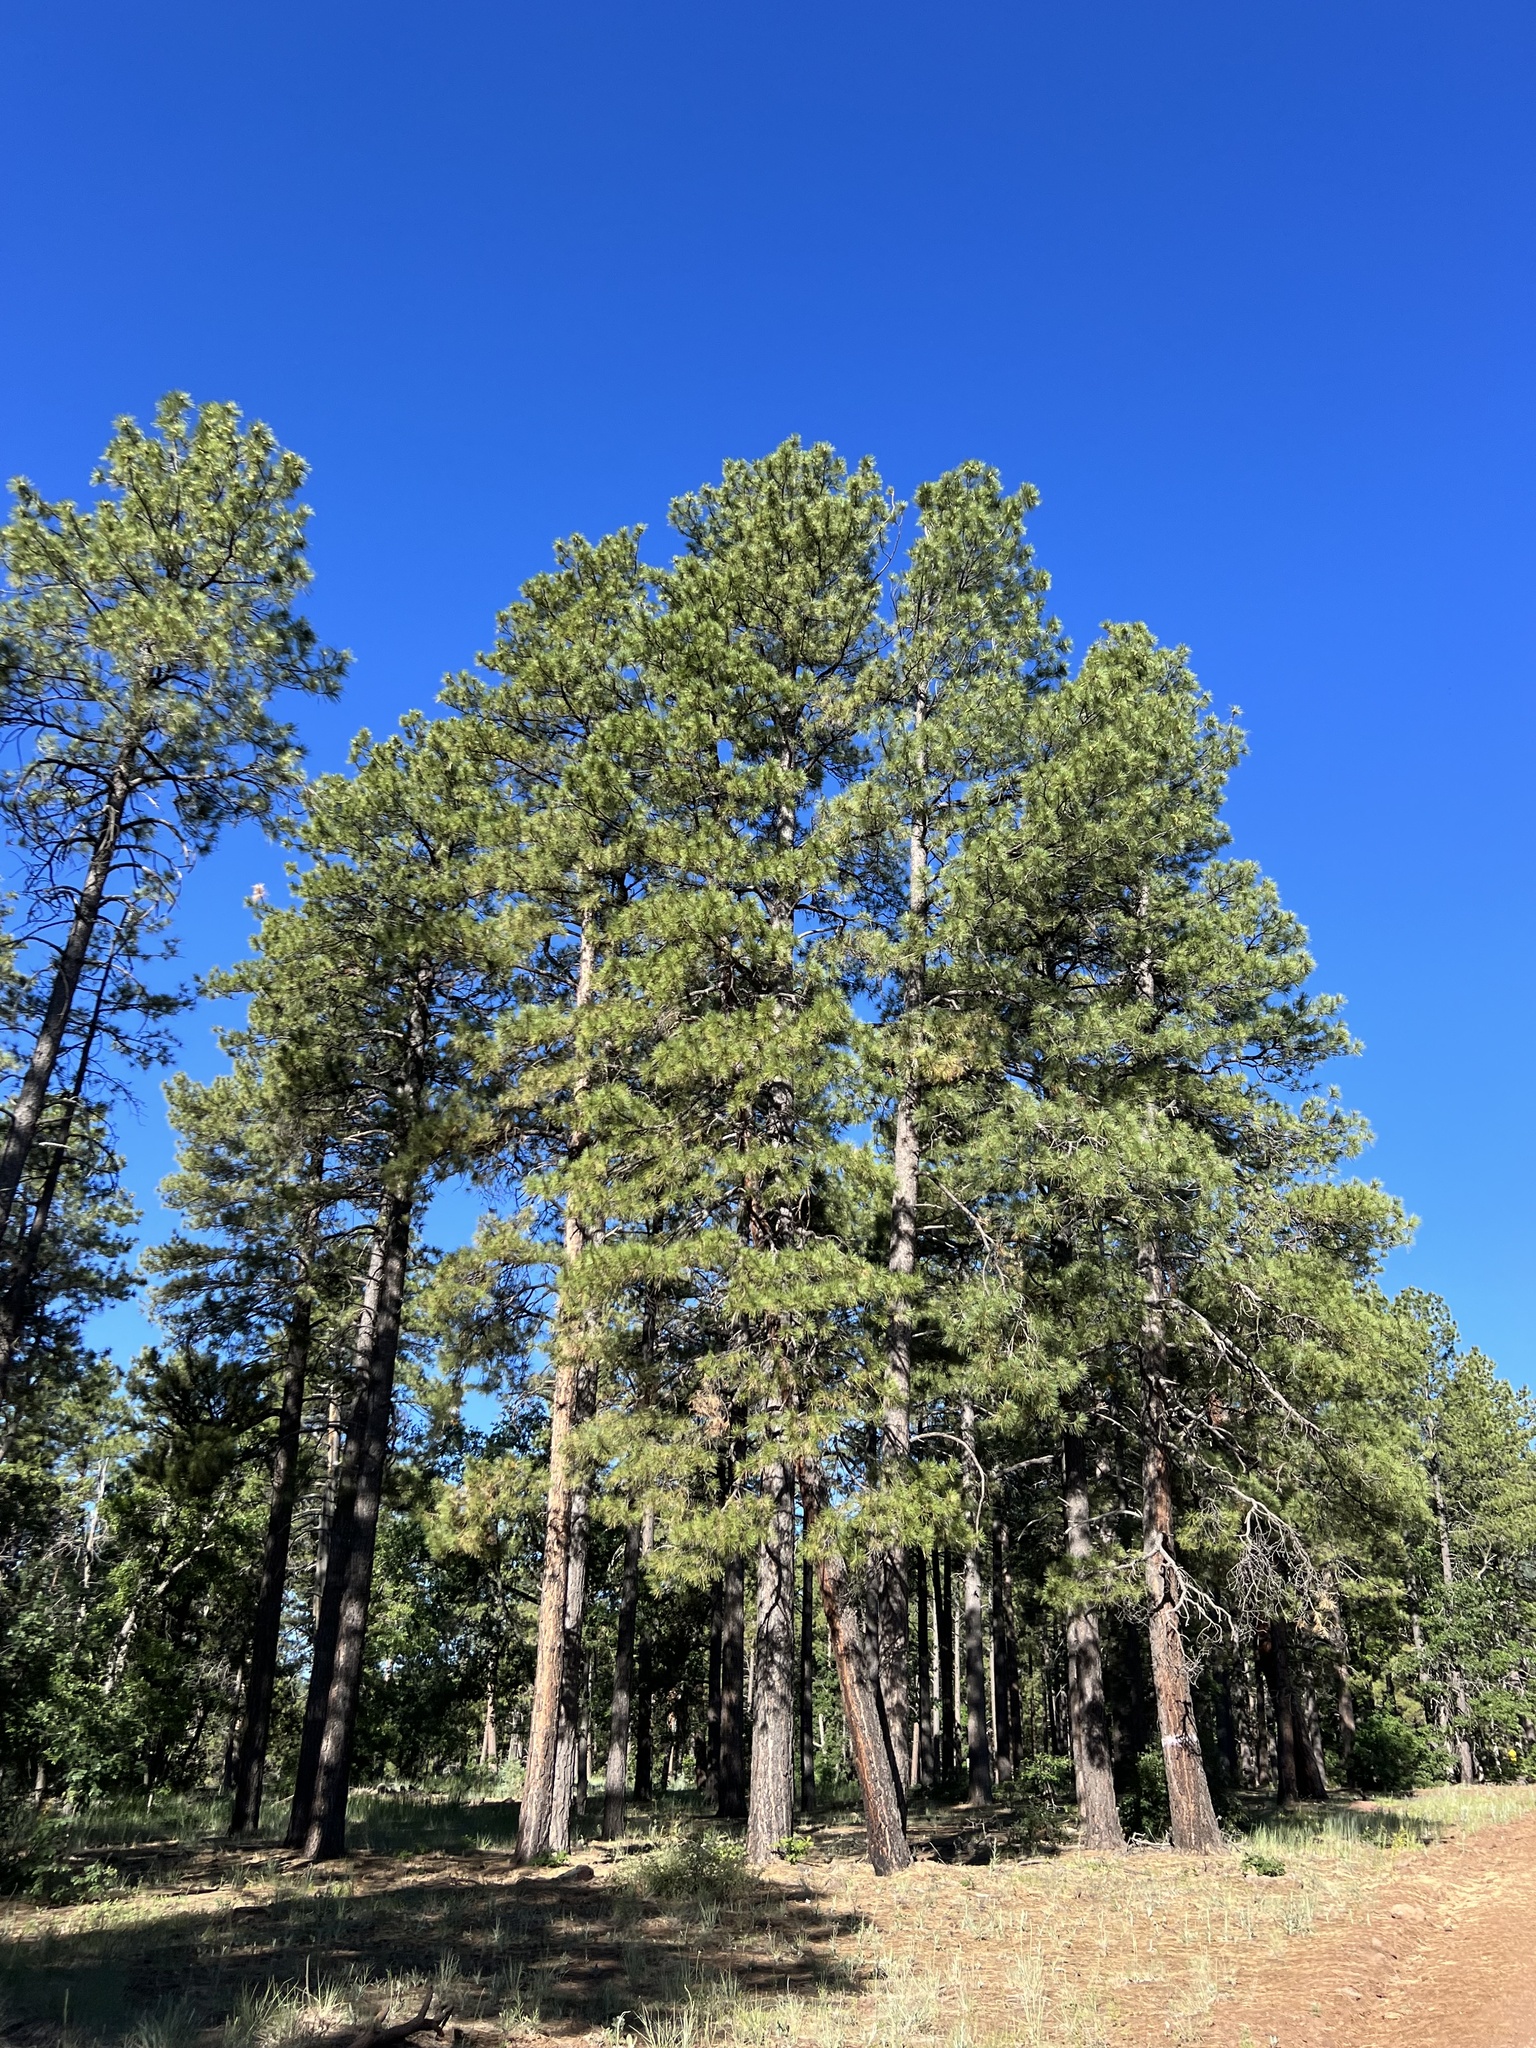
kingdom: Plantae
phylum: Tracheophyta
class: Pinopsida
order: Pinales
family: Pinaceae
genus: Pinus
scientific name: Pinus ponderosa
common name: Western yellow-pine
